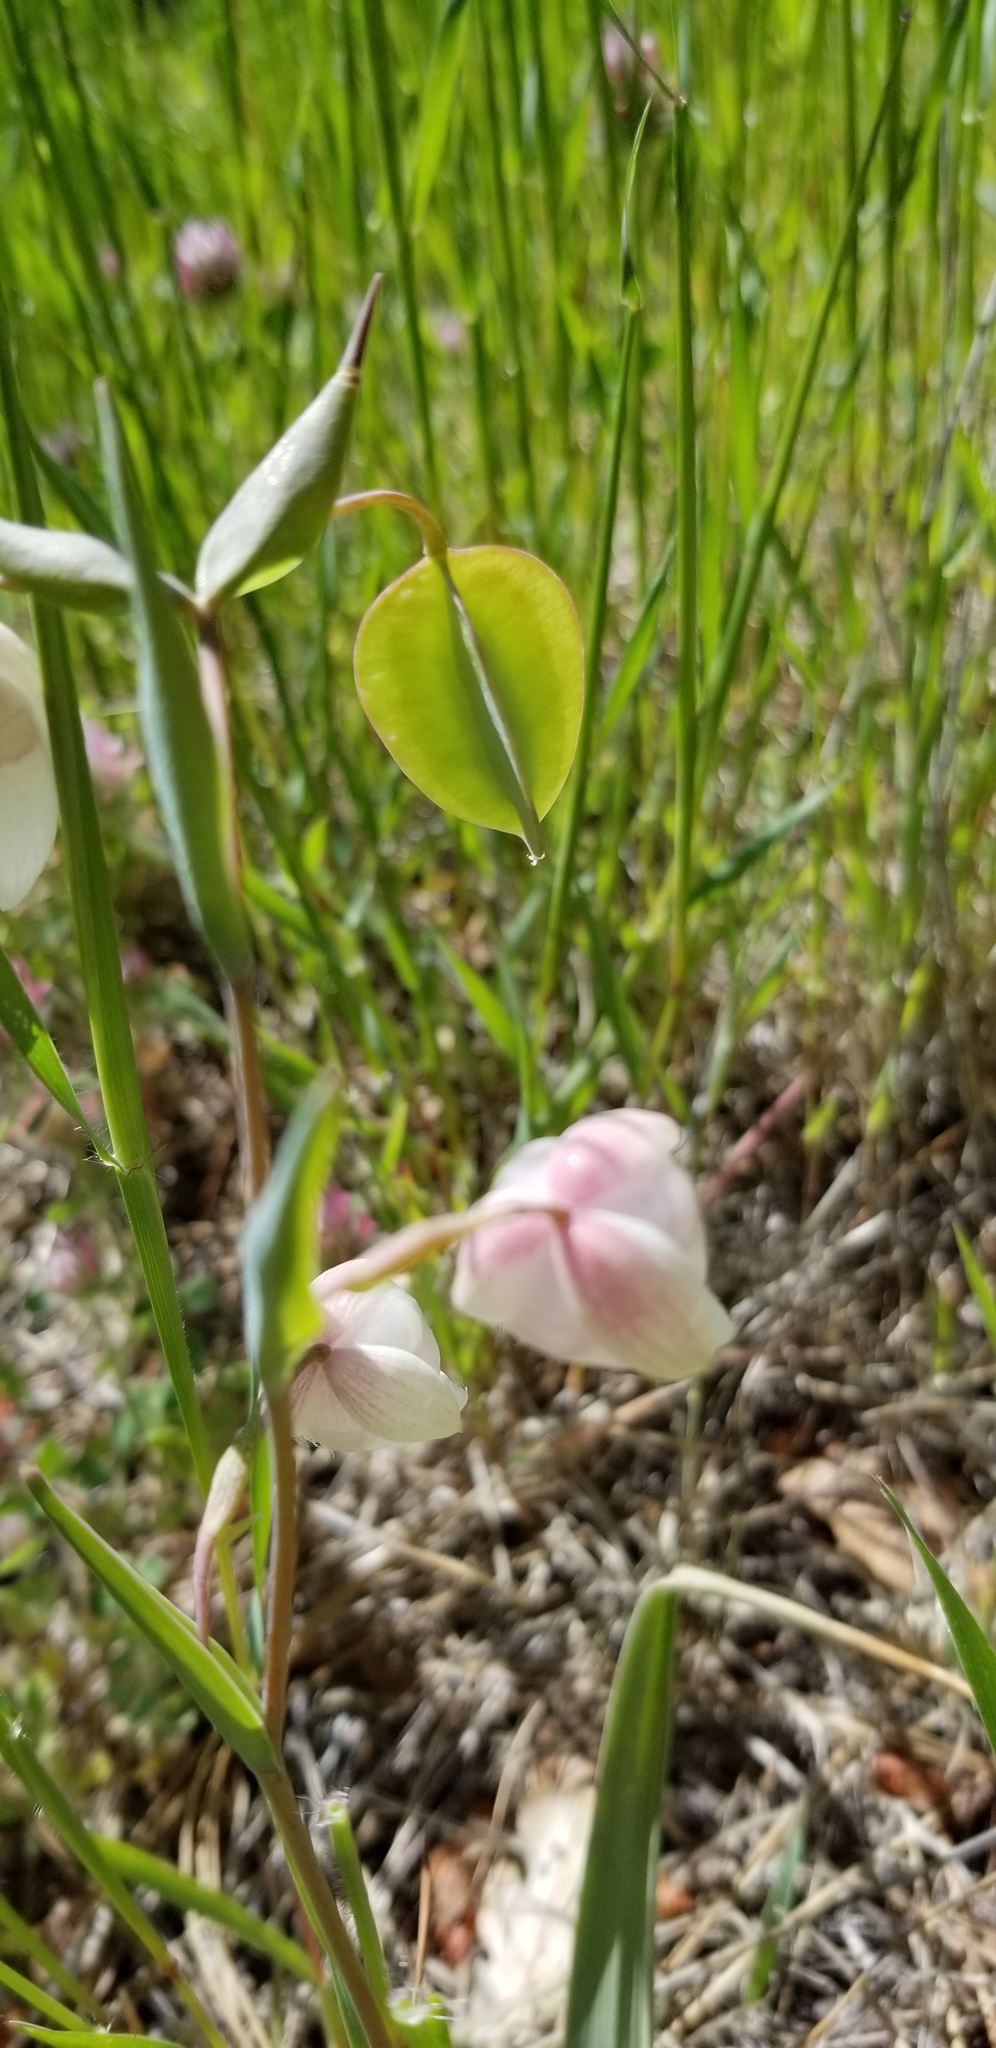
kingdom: Plantae
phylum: Tracheophyta
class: Liliopsida
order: Liliales
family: Liliaceae
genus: Calochortus
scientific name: Calochortus albus
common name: Fairy-lantern
